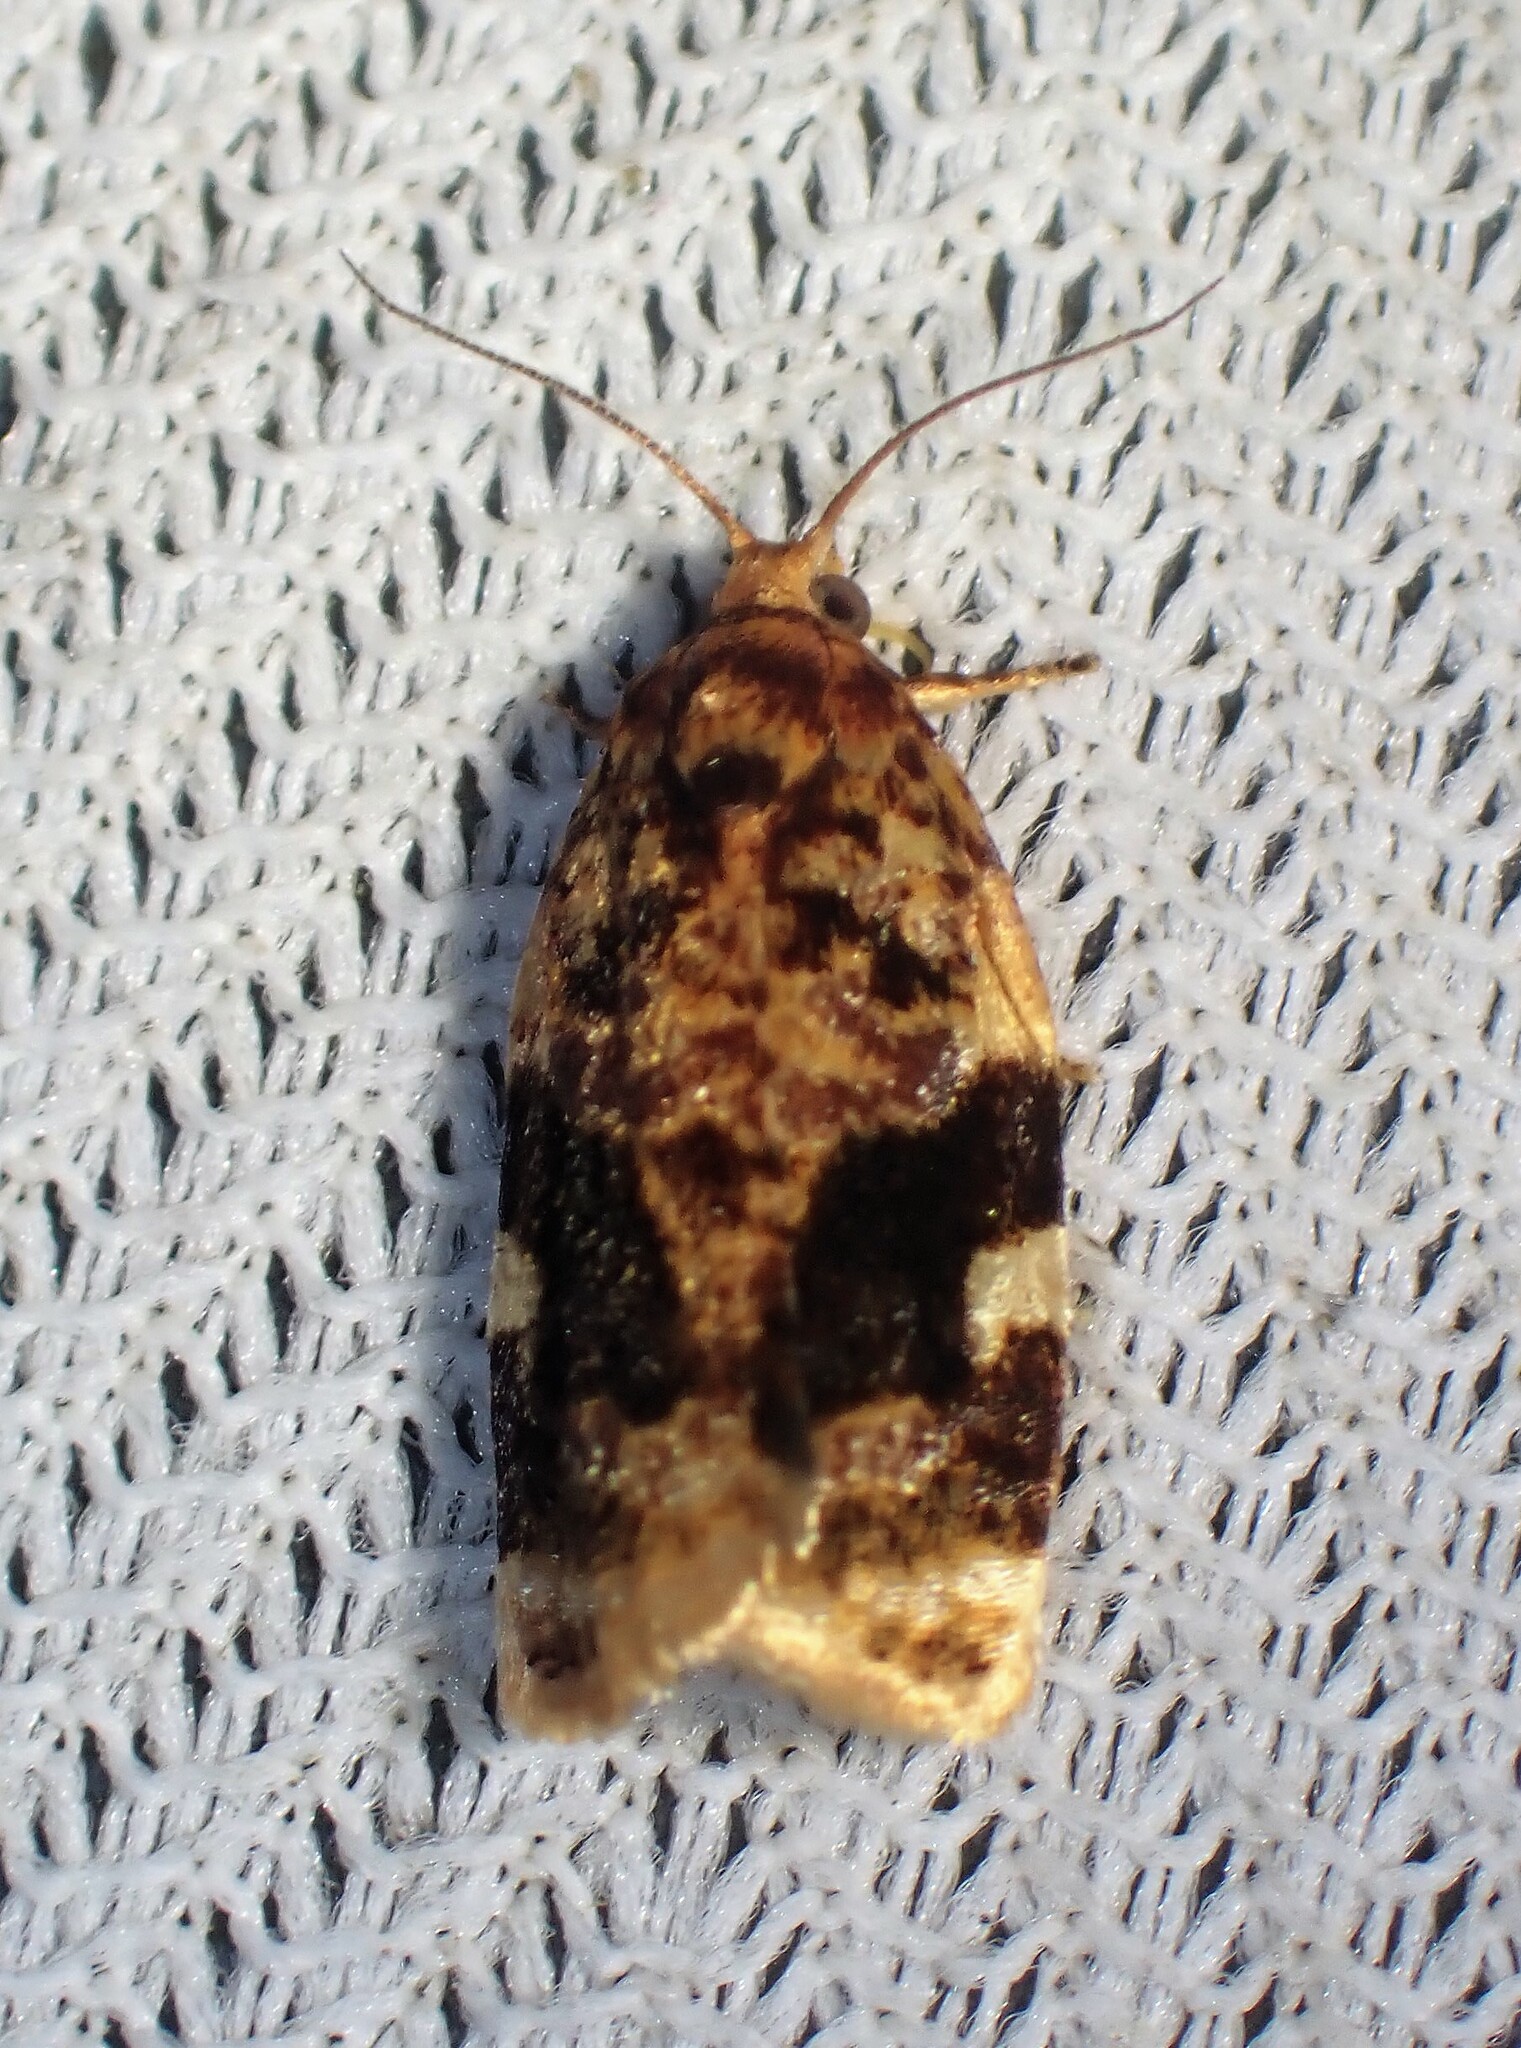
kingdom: Animalia
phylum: Arthropoda
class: Insecta
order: Lepidoptera
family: Tortricidae
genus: Archips
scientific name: Archips argyrospila
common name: Fruit-tree leafroller moth
